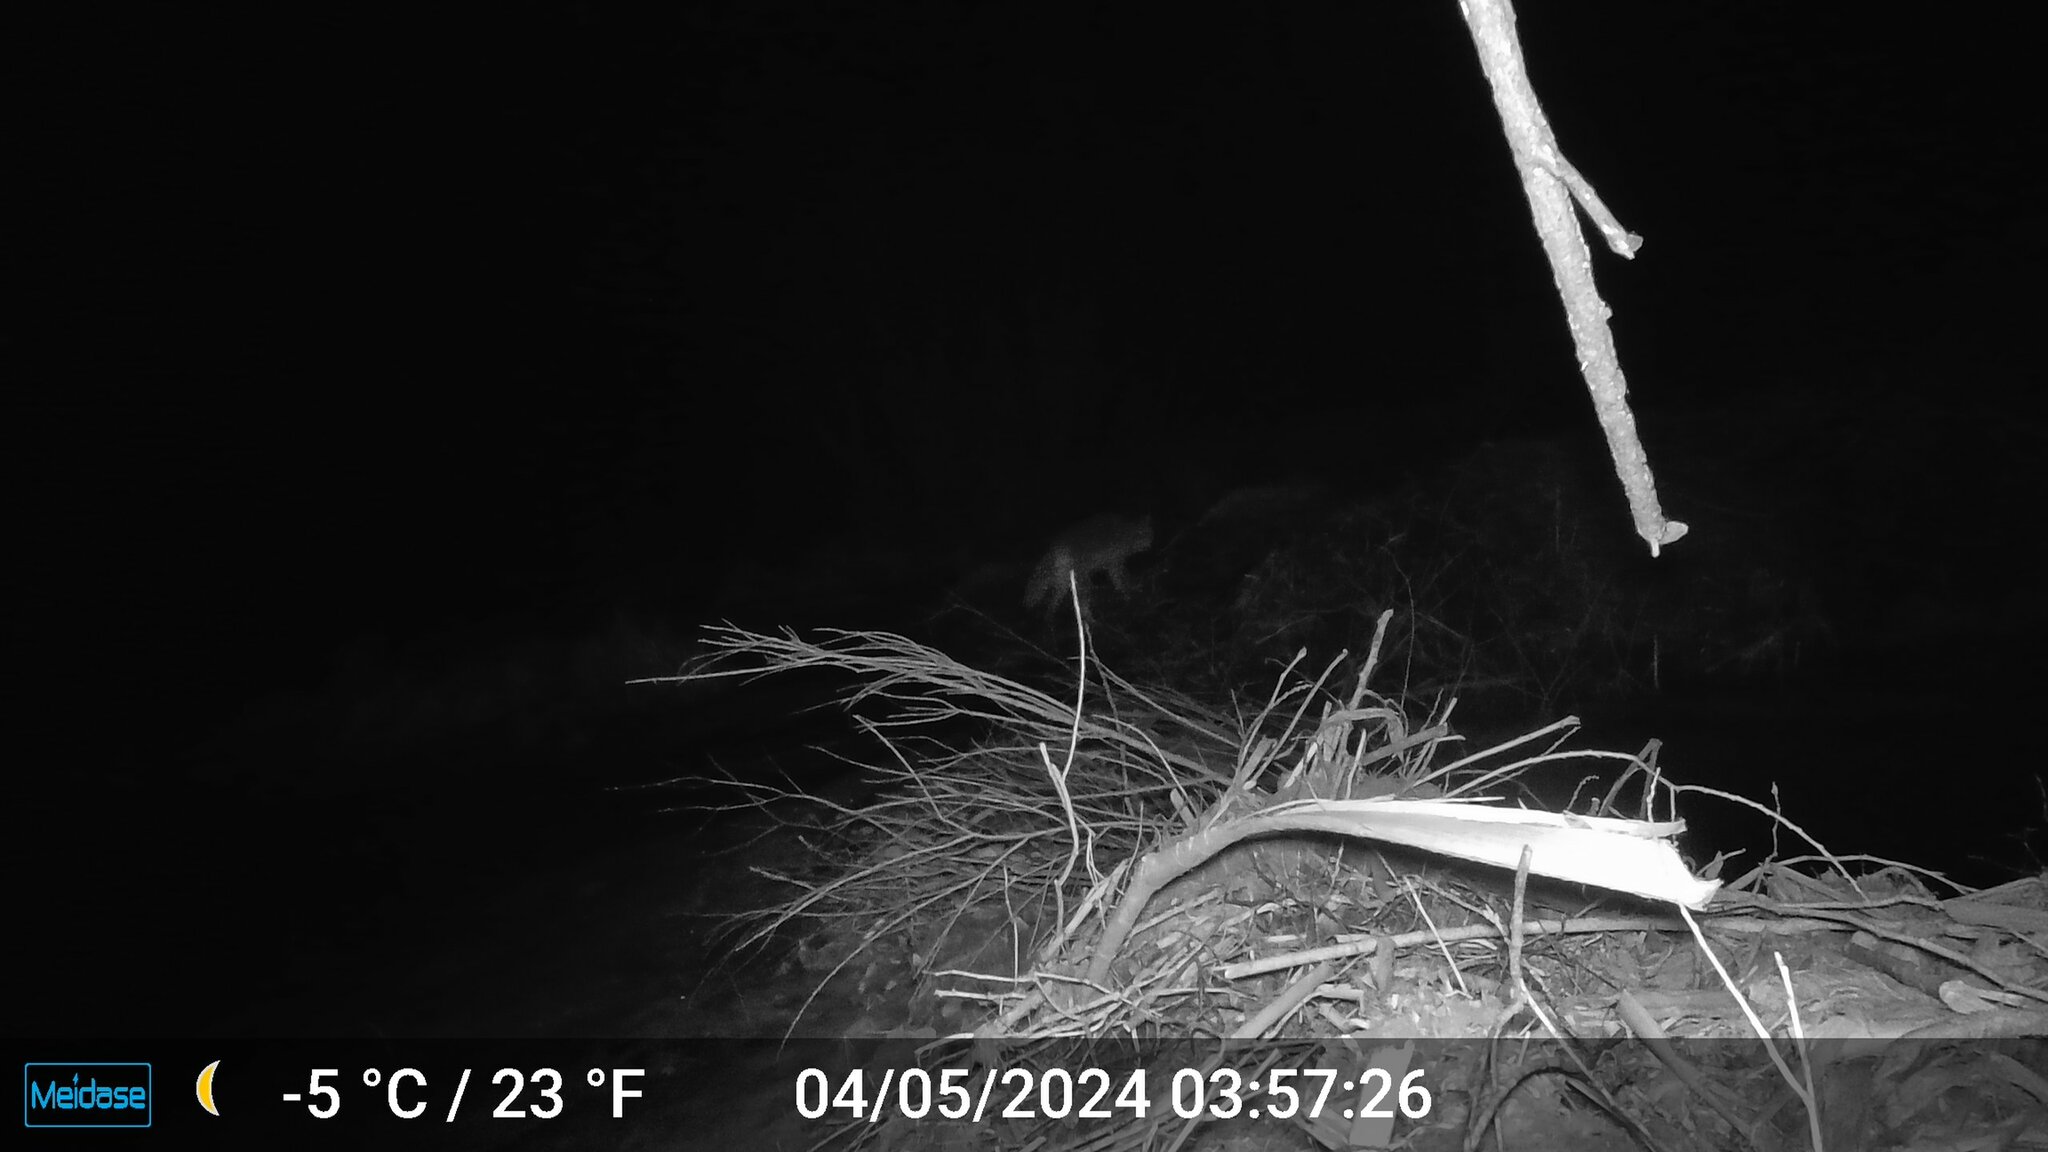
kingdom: Animalia
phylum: Chordata
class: Mammalia
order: Carnivora
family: Canidae
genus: Canis
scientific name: Canis latrans
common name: Coyote
